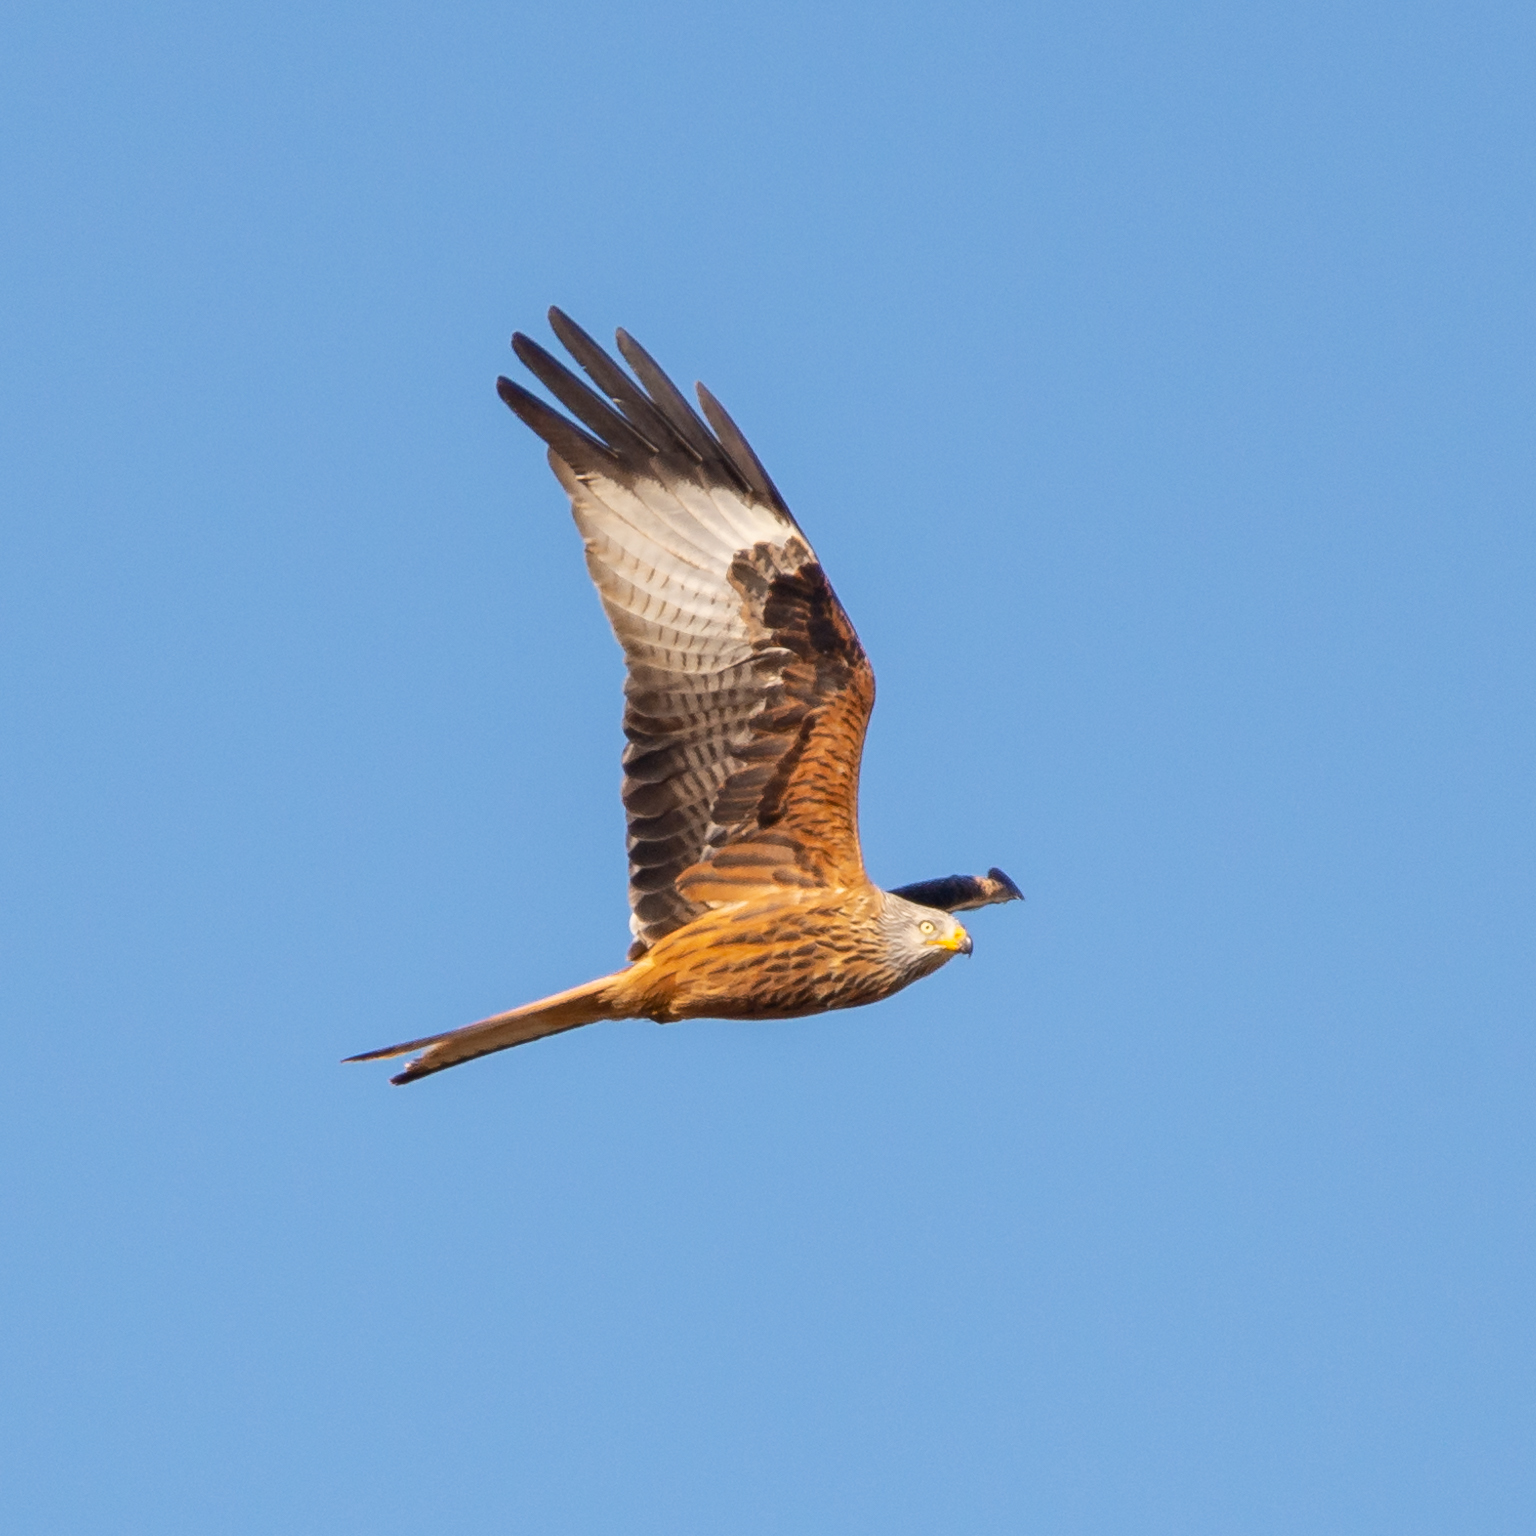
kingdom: Animalia
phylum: Chordata
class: Aves
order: Accipitriformes
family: Accipitridae
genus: Milvus
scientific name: Milvus milvus
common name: Red kite
